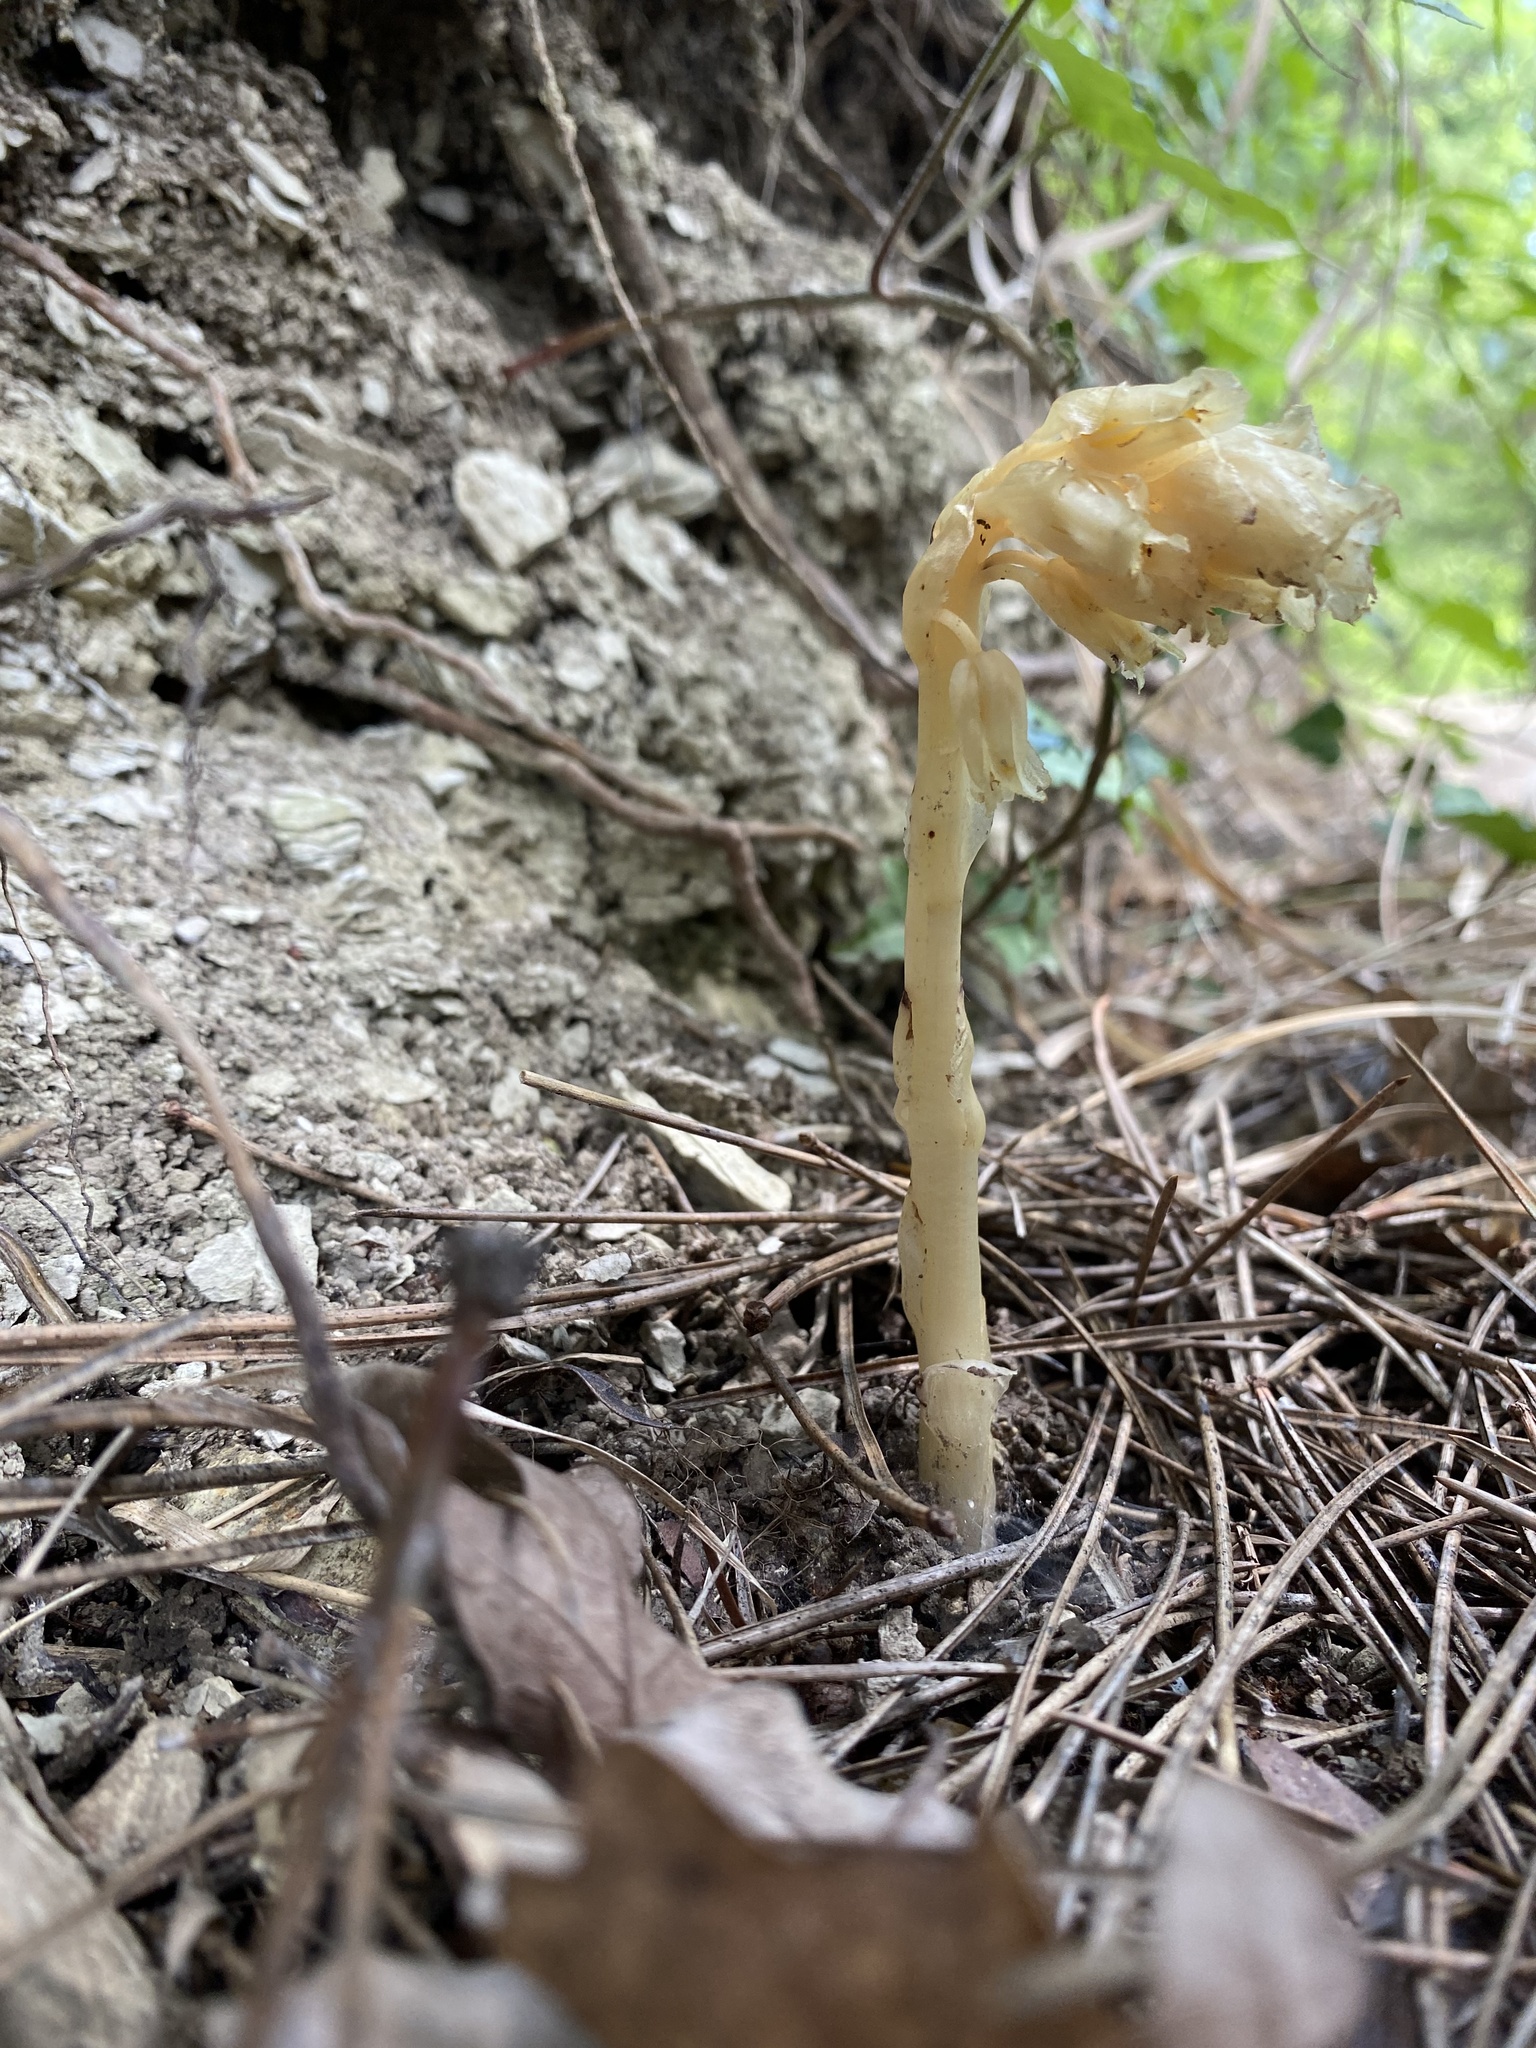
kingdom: Plantae
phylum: Tracheophyta
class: Magnoliopsida
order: Ericales
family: Ericaceae
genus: Hypopitys
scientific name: Hypopitys monotropa
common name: Yellow bird's-nest
